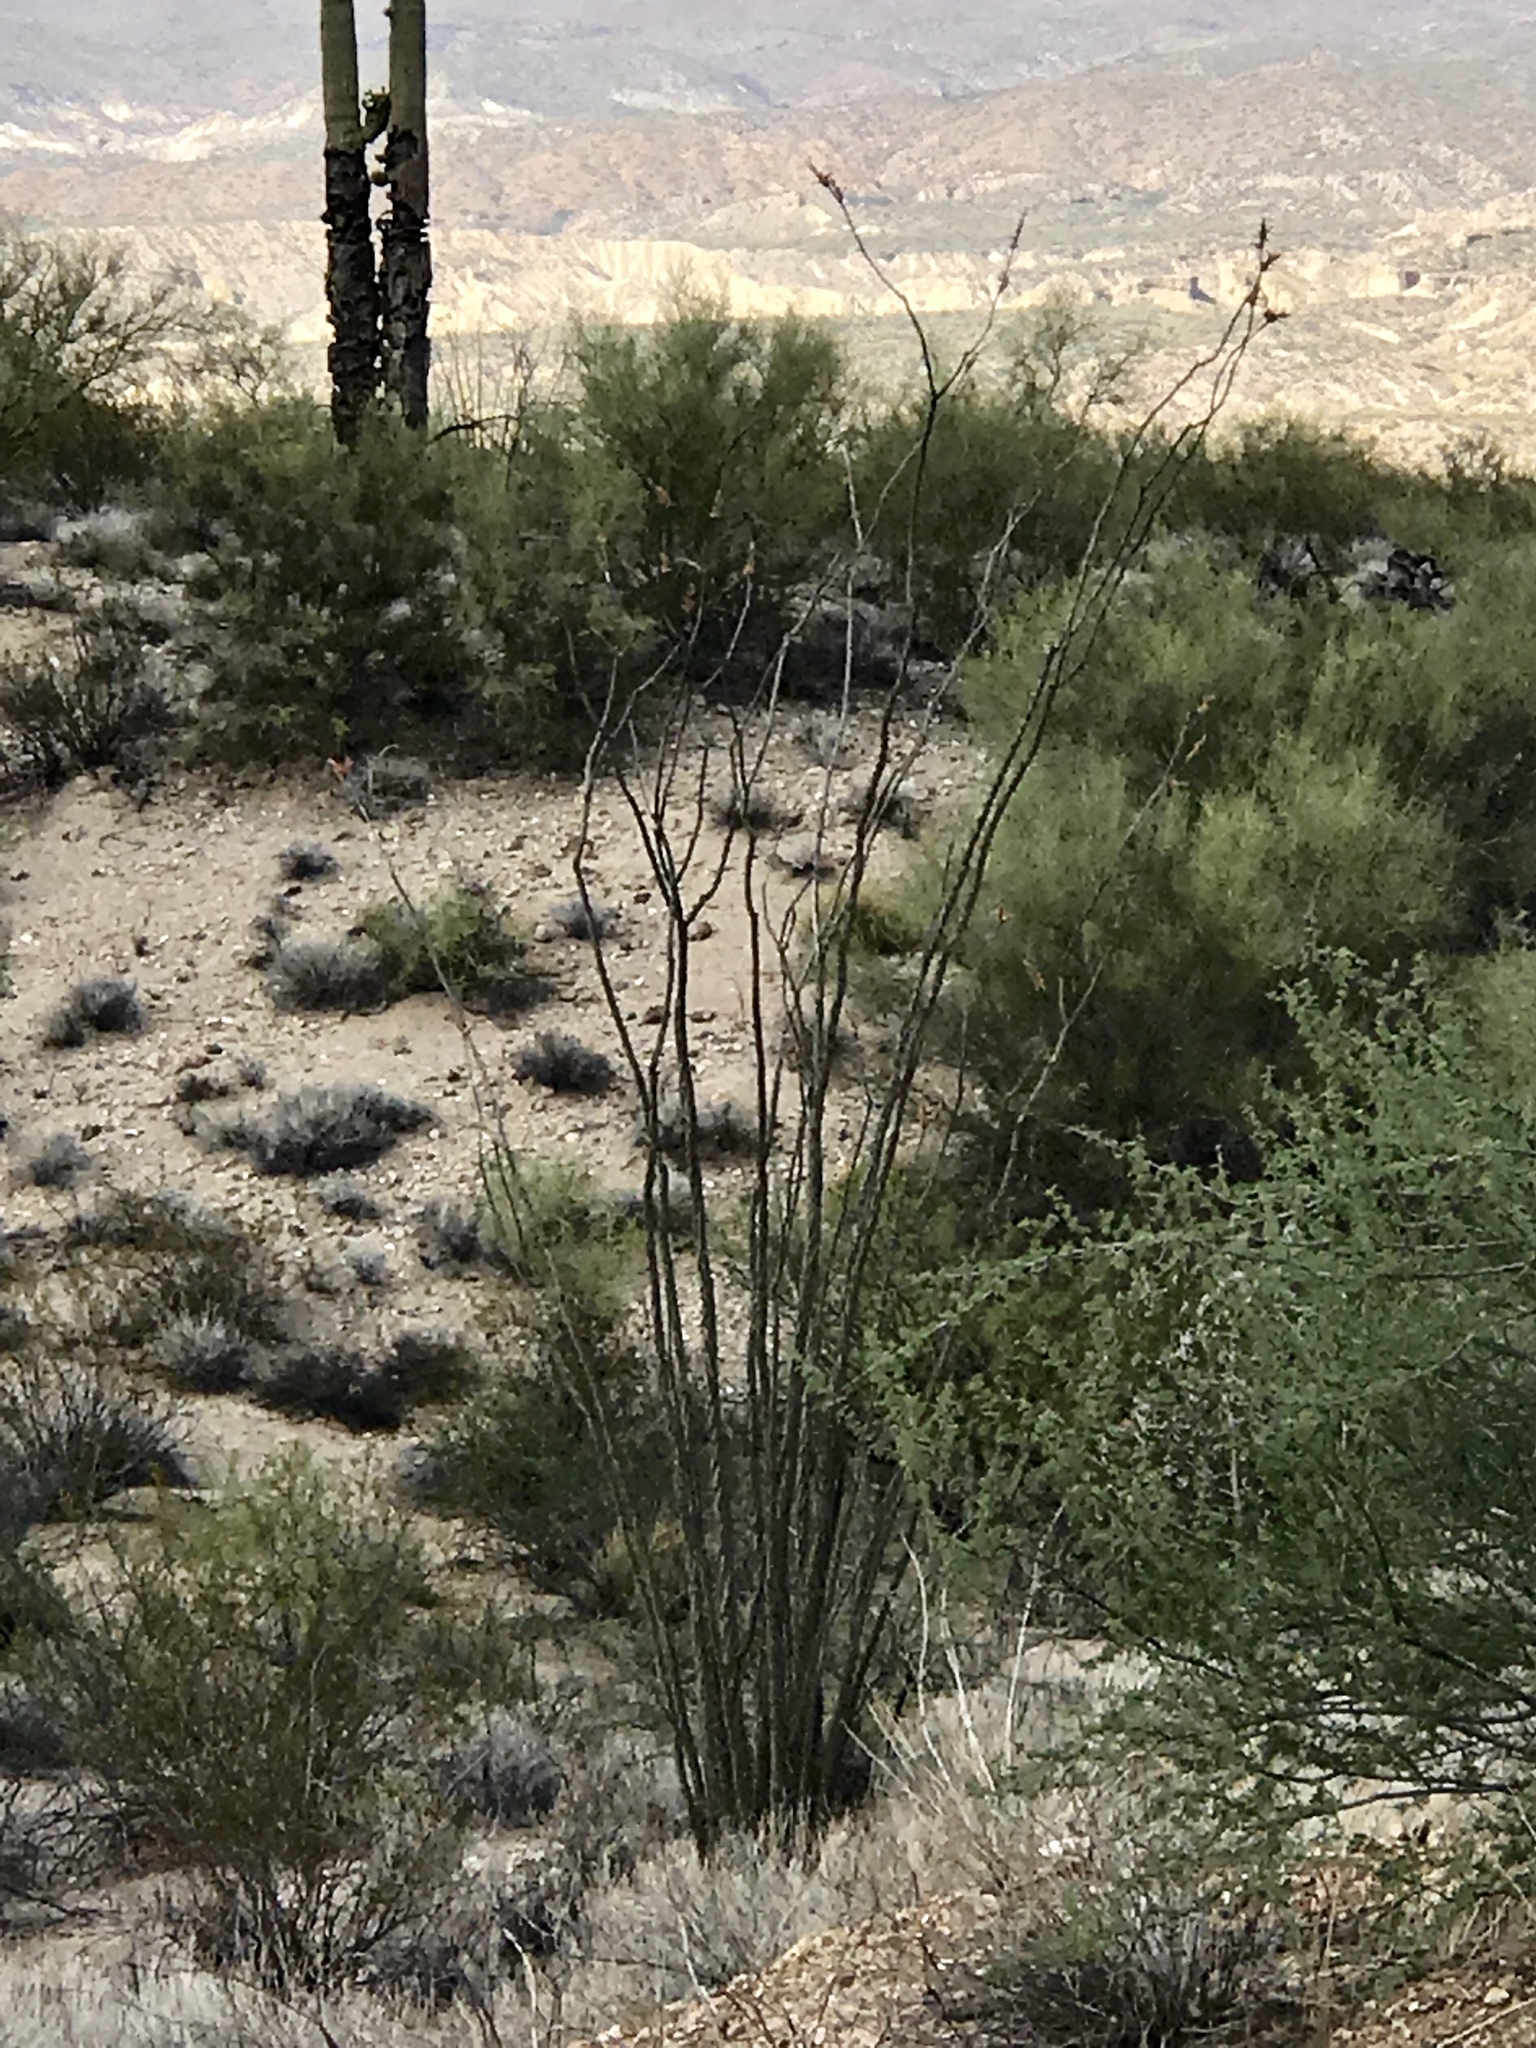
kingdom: Plantae
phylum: Tracheophyta
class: Magnoliopsida
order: Ericales
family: Fouquieriaceae
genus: Fouquieria
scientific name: Fouquieria splendens
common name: Vine-cactus
